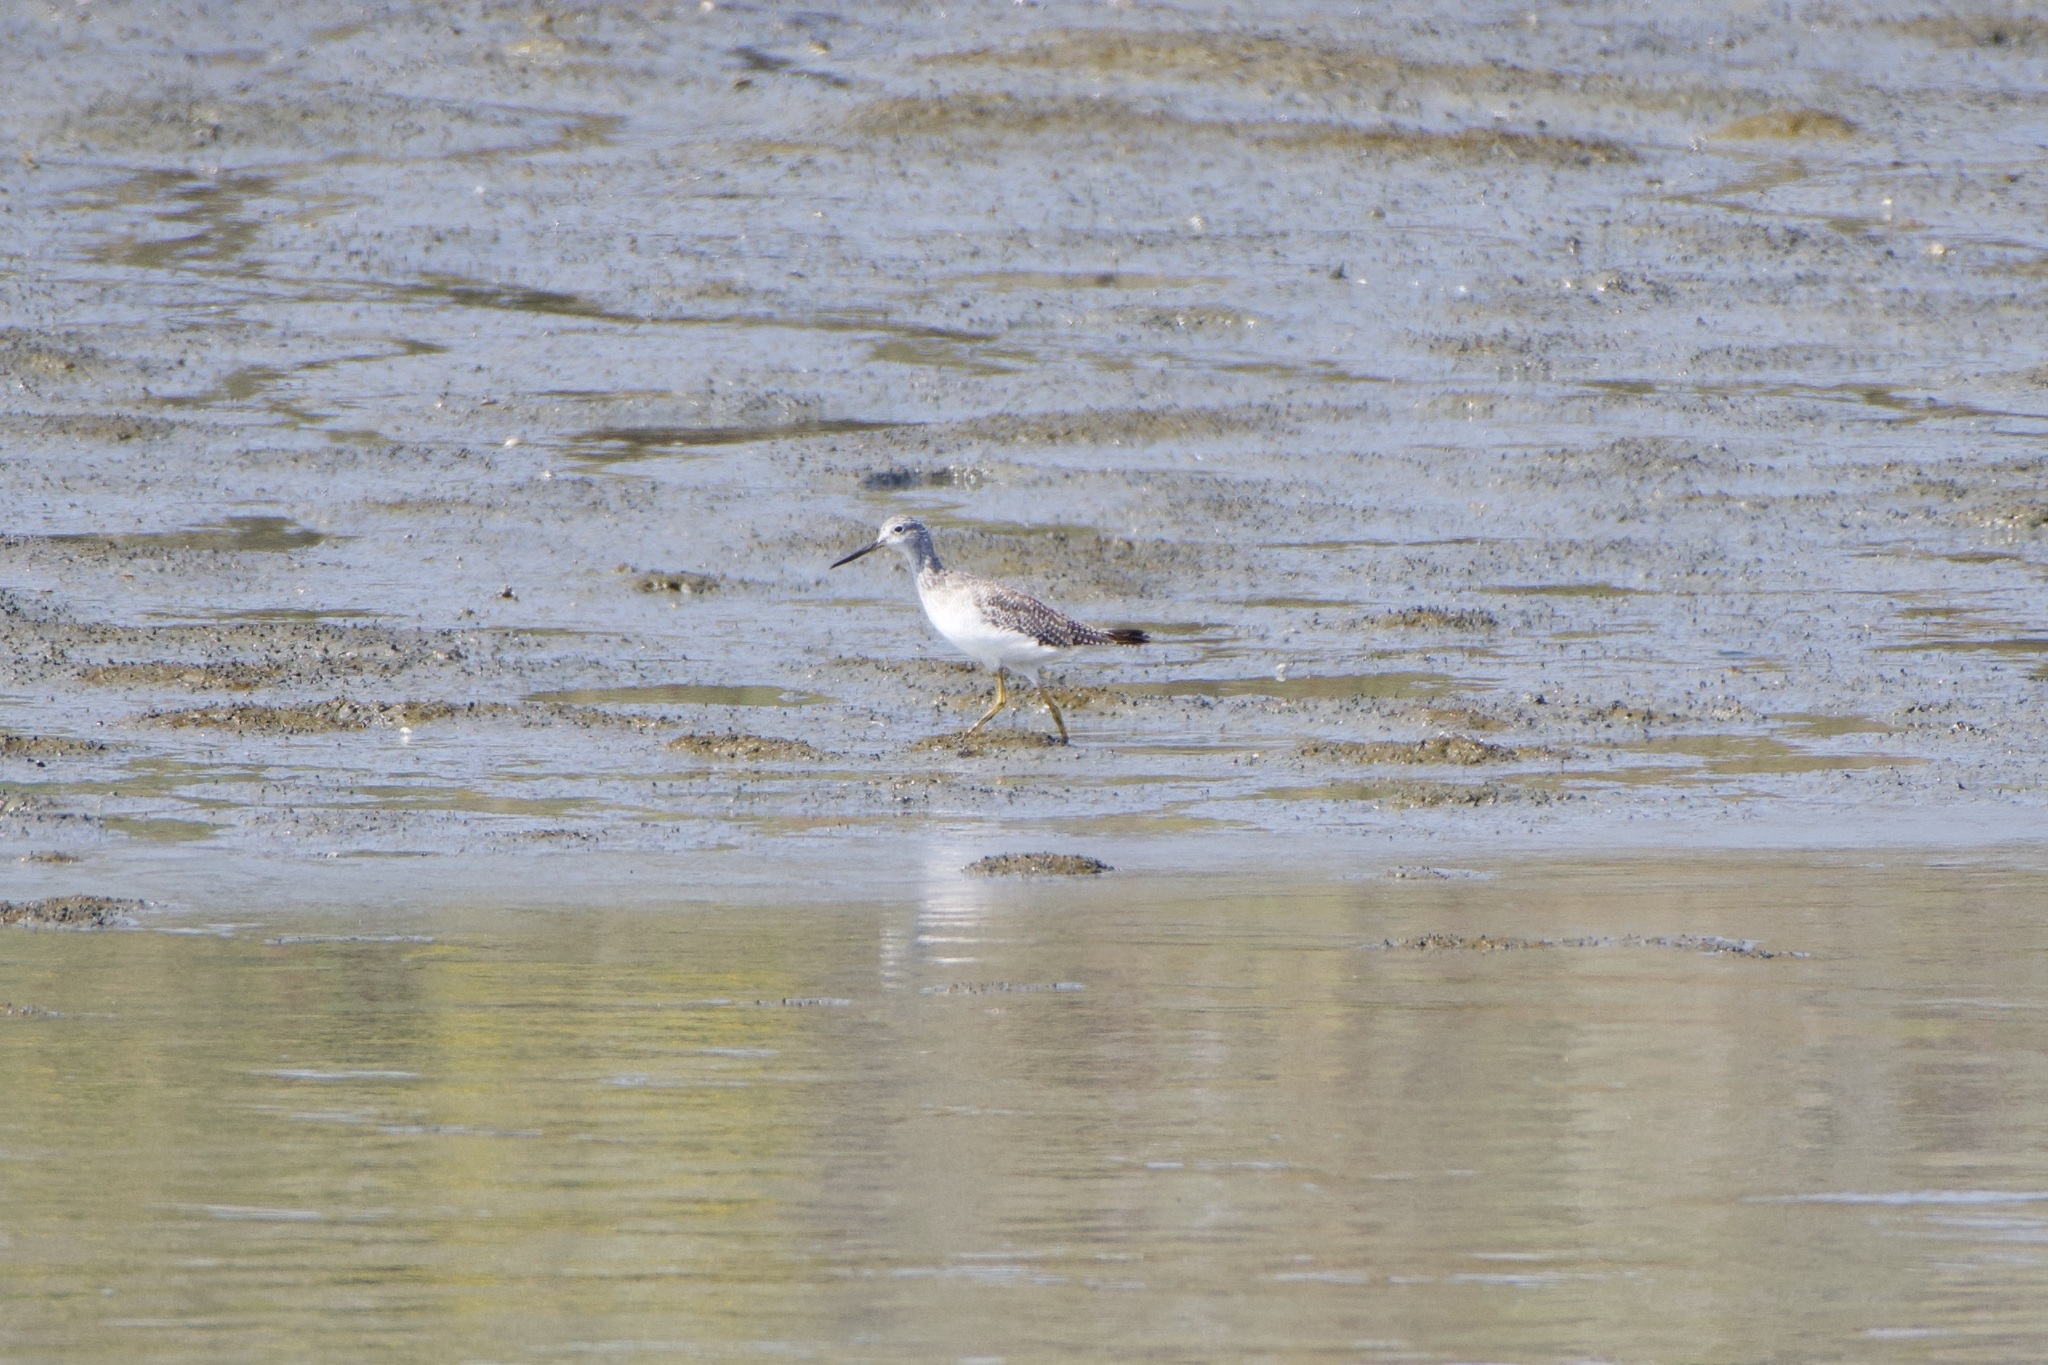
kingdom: Animalia
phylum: Chordata
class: Aves
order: Charadriiformes
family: Scolopacidae
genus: Tringa
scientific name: Tringa melanoleuca
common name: Greater yellowlegs
